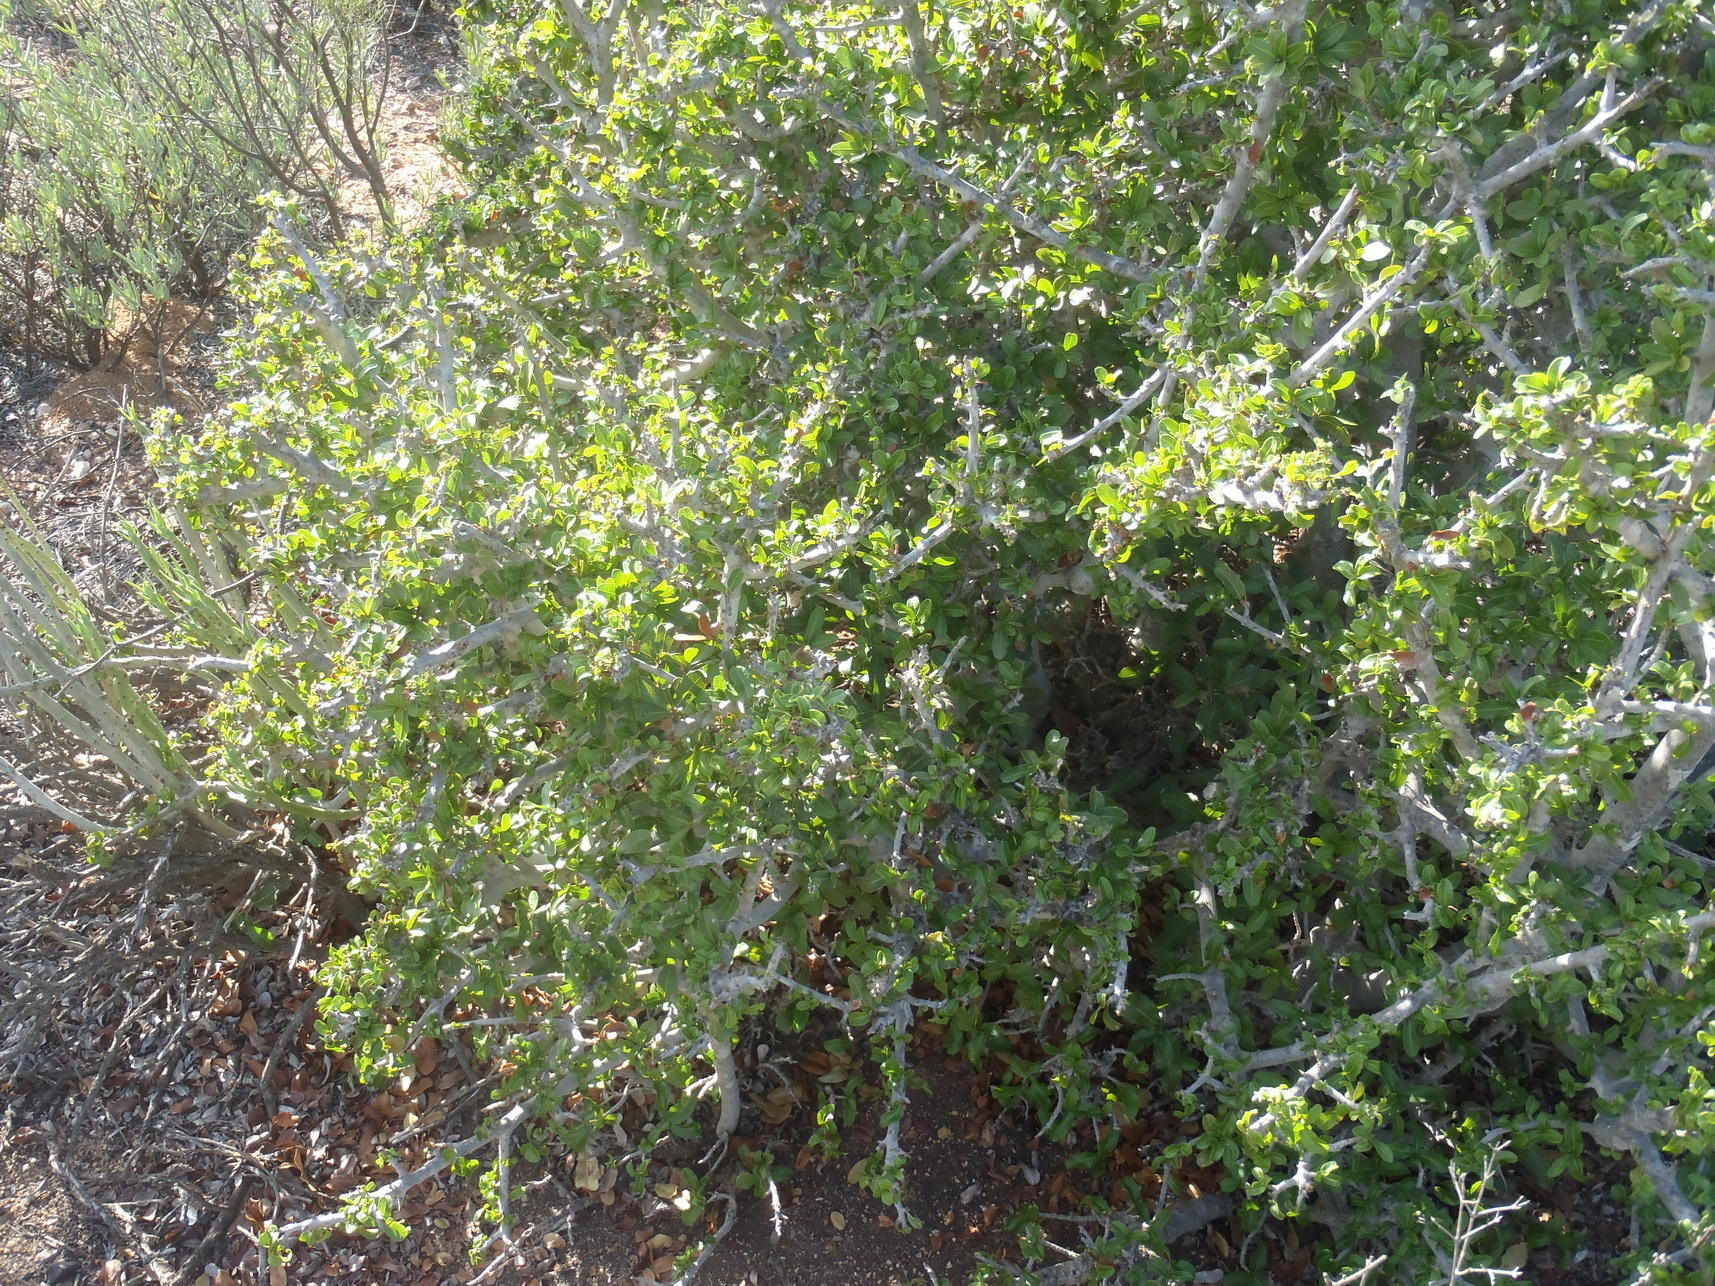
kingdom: Plantae
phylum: Tracheophyta
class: Magnoliopsida
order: Sapindales
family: Sapindaceae
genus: Pappea
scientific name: Pappea capensis
